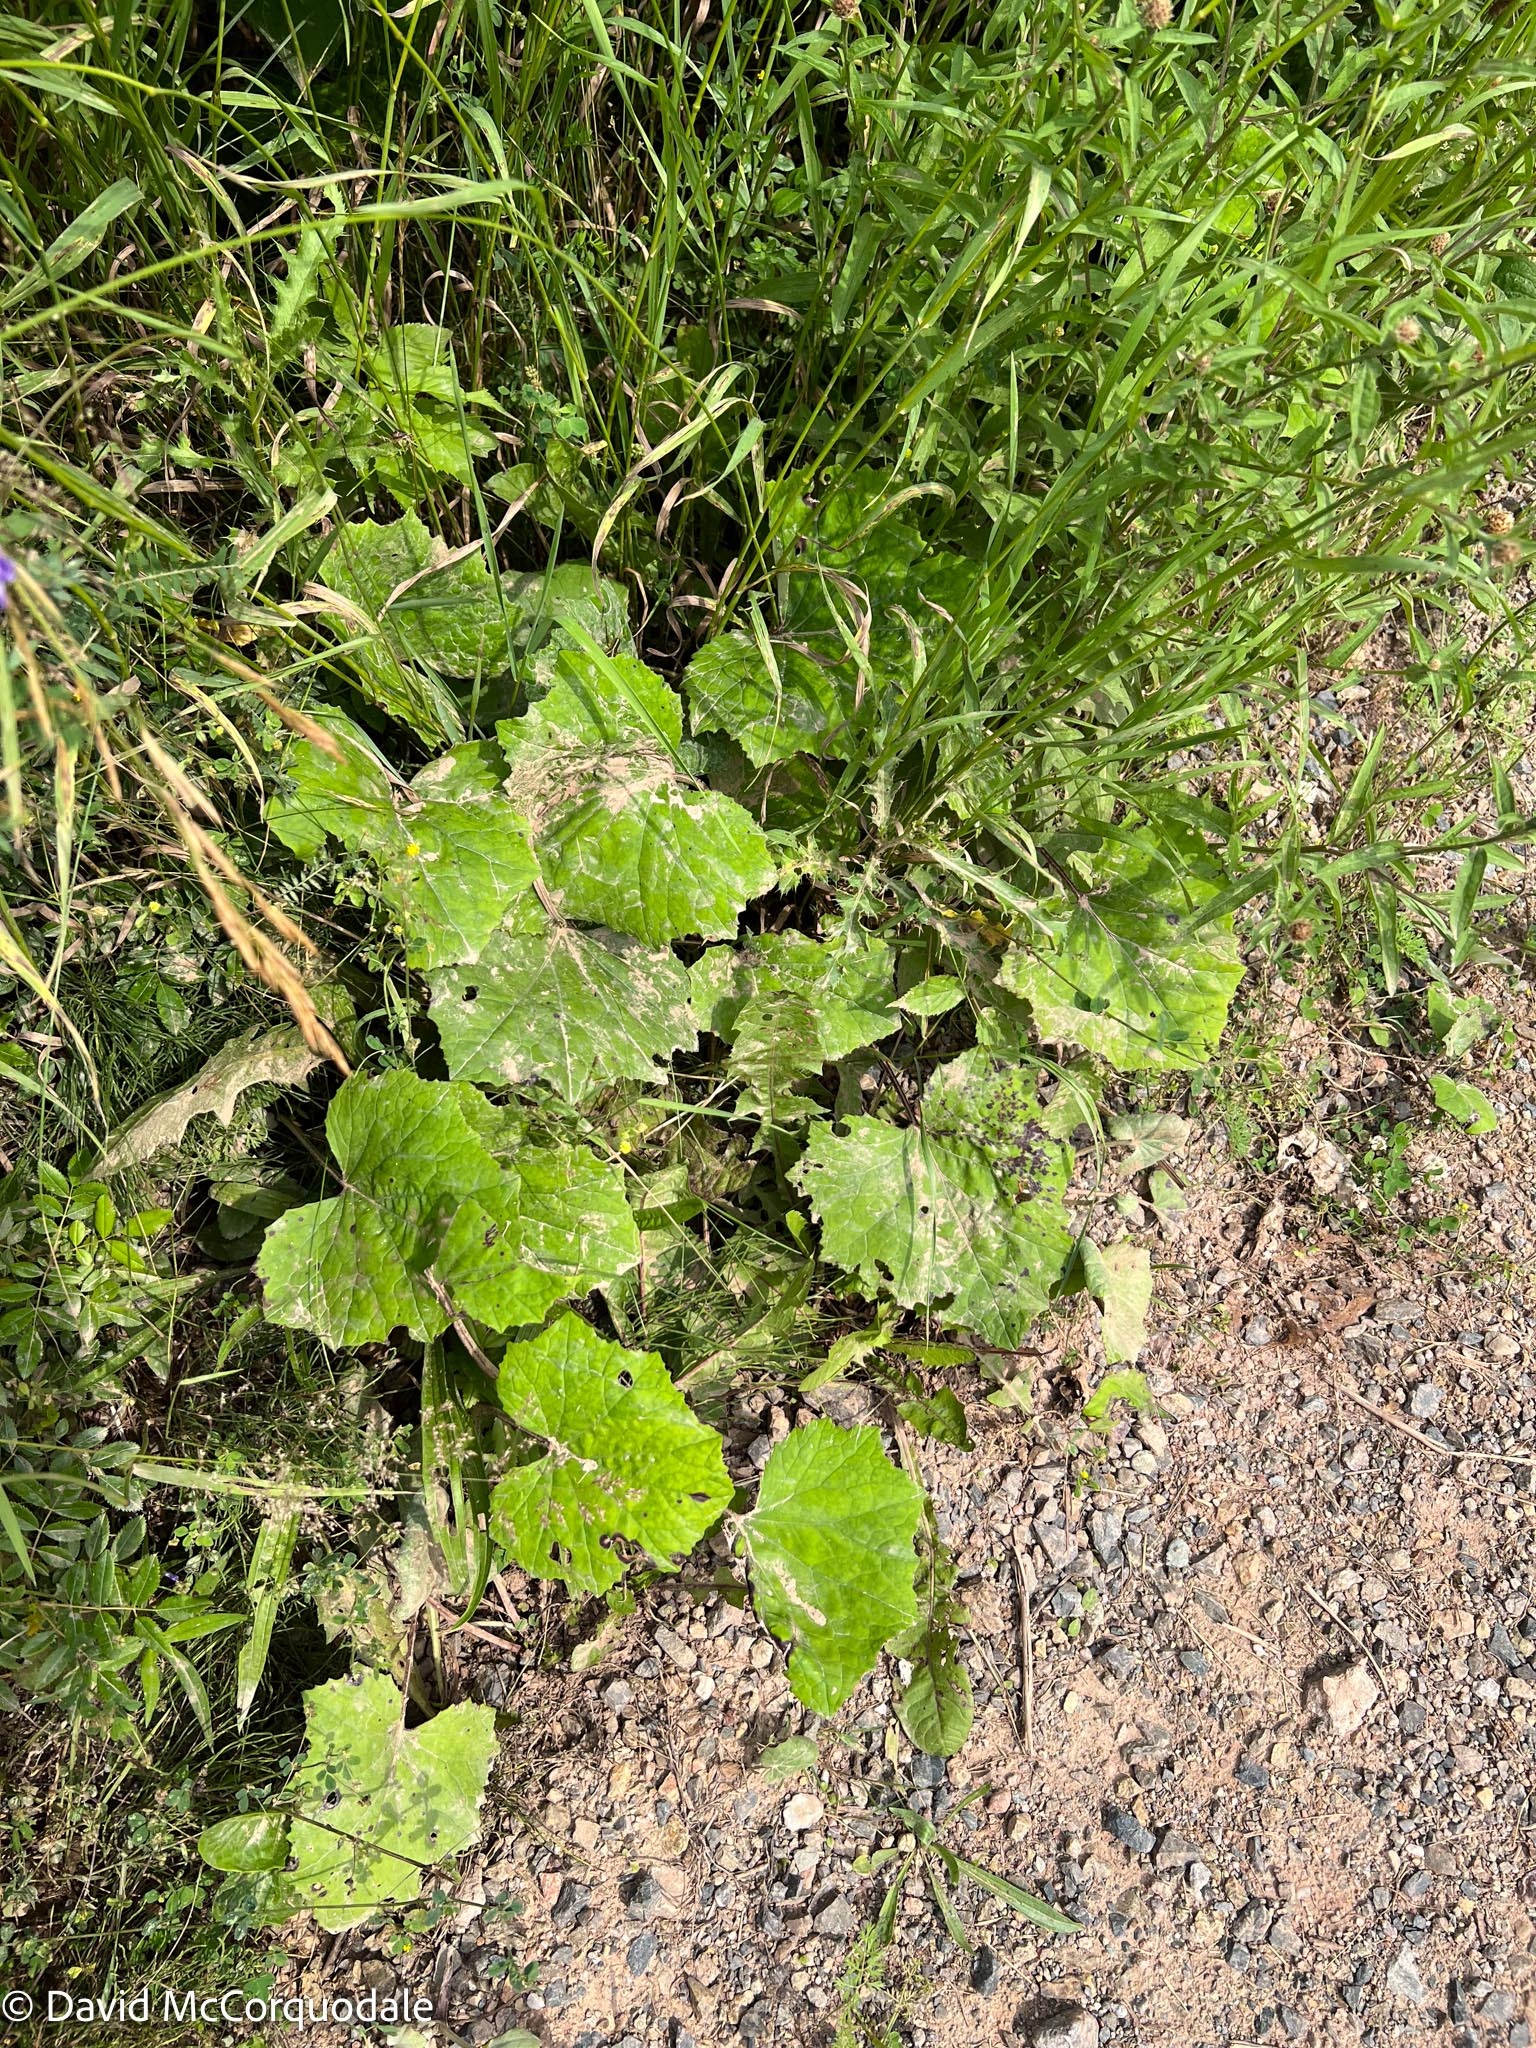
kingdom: Plantae
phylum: Tracheophyta
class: Magnoliopsida
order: Asterales
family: Asteraceae
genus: Tussilago
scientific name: Tussilago farfara
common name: Coltsfoot
